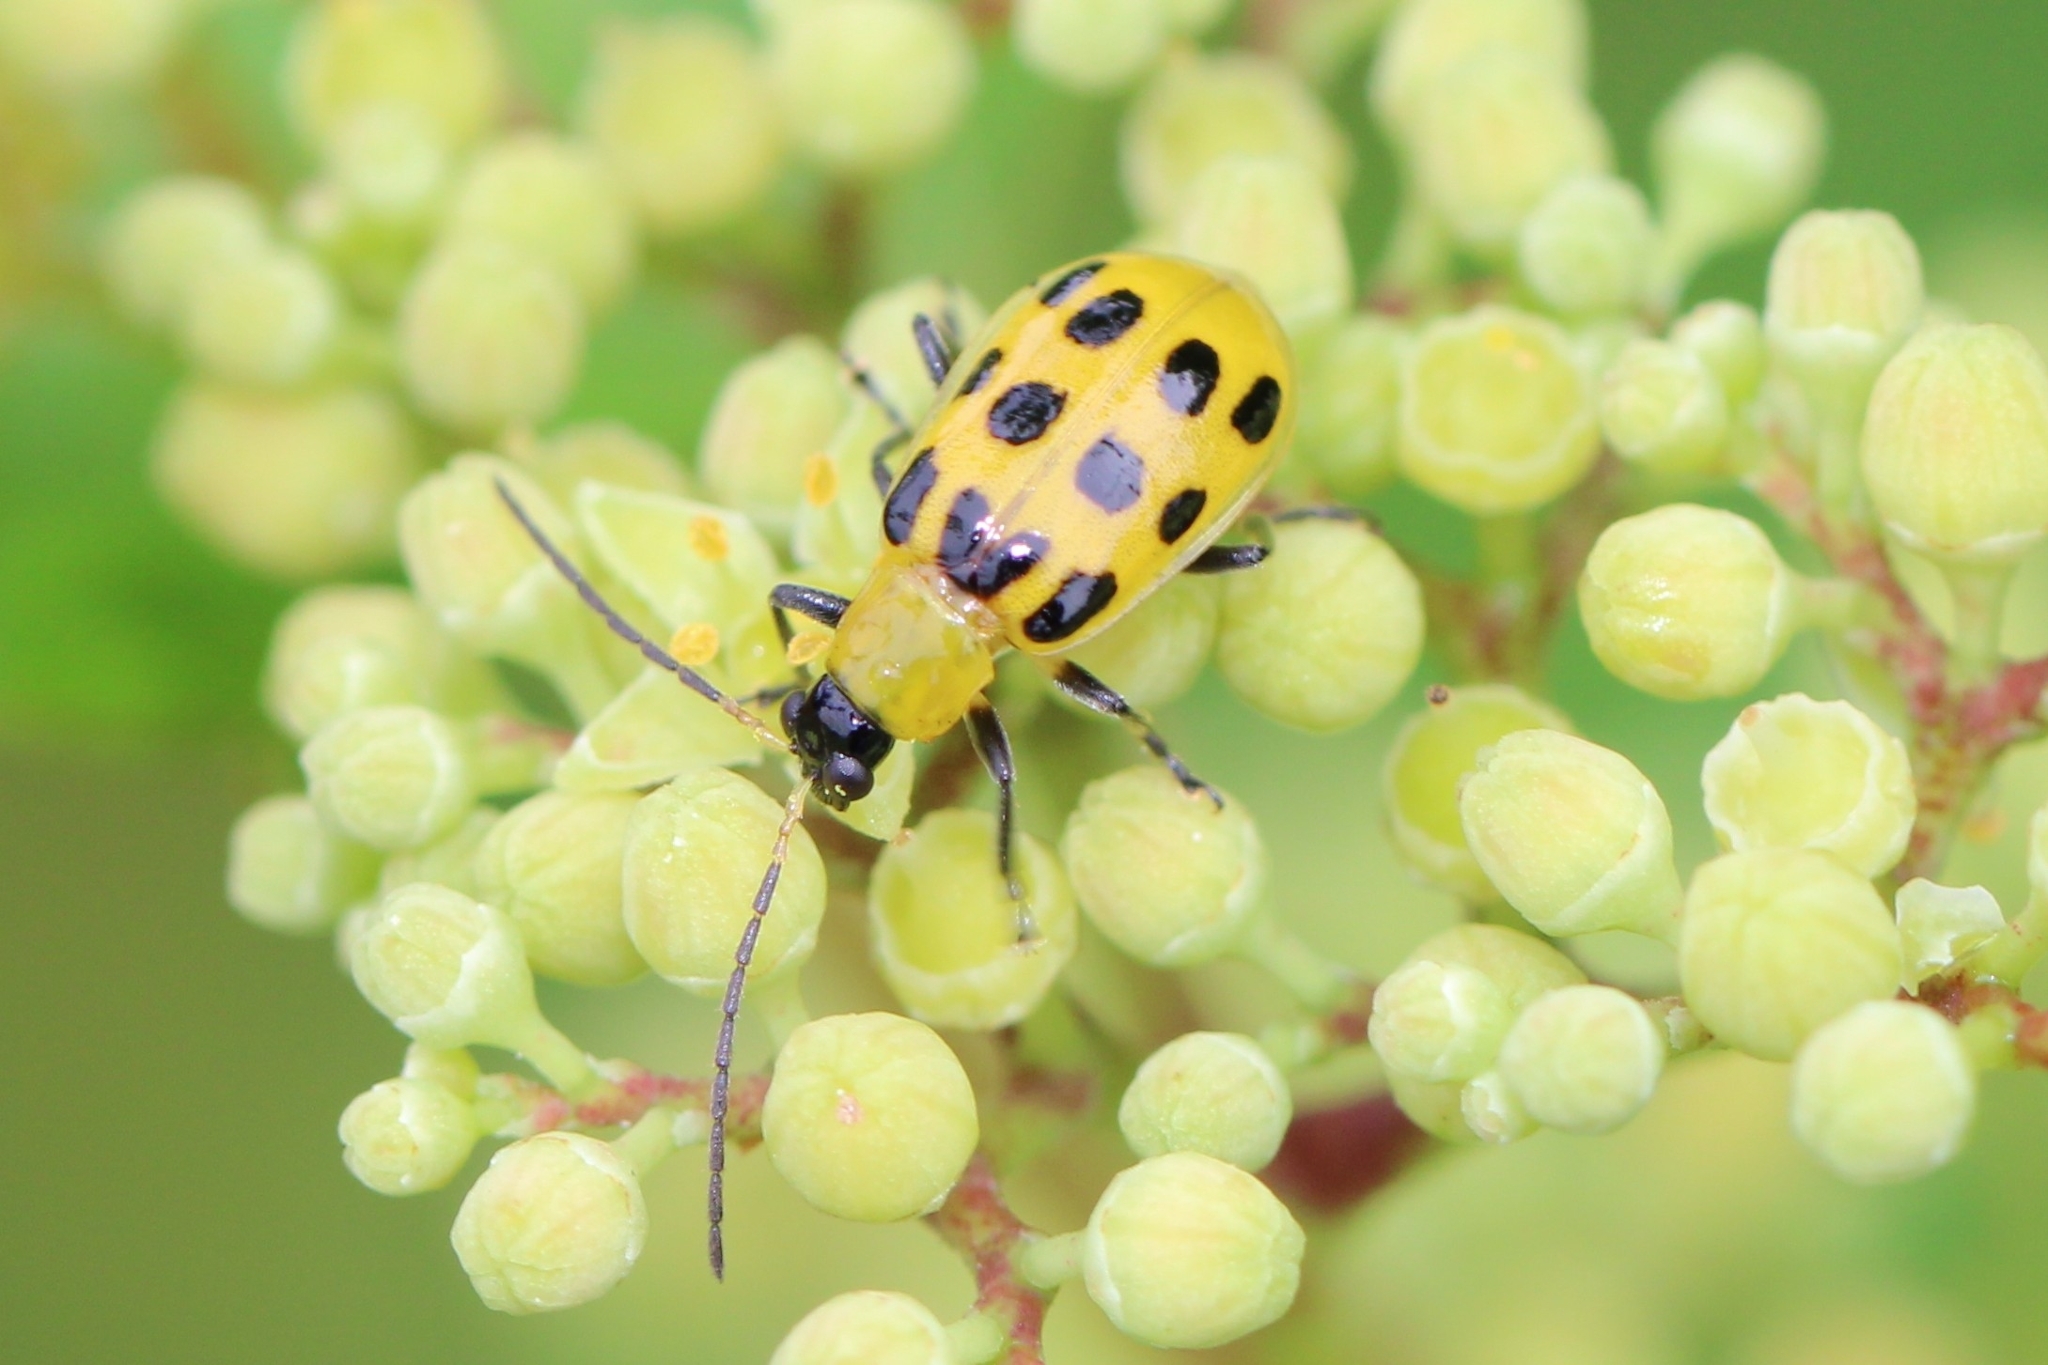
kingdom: Animalia
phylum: Arthropoda
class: Insecta
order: Coleoptera
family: Chrysomelidae
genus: Diabrotica
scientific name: Diabrotica undecimpunctata
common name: Spotted cucumber beetle
